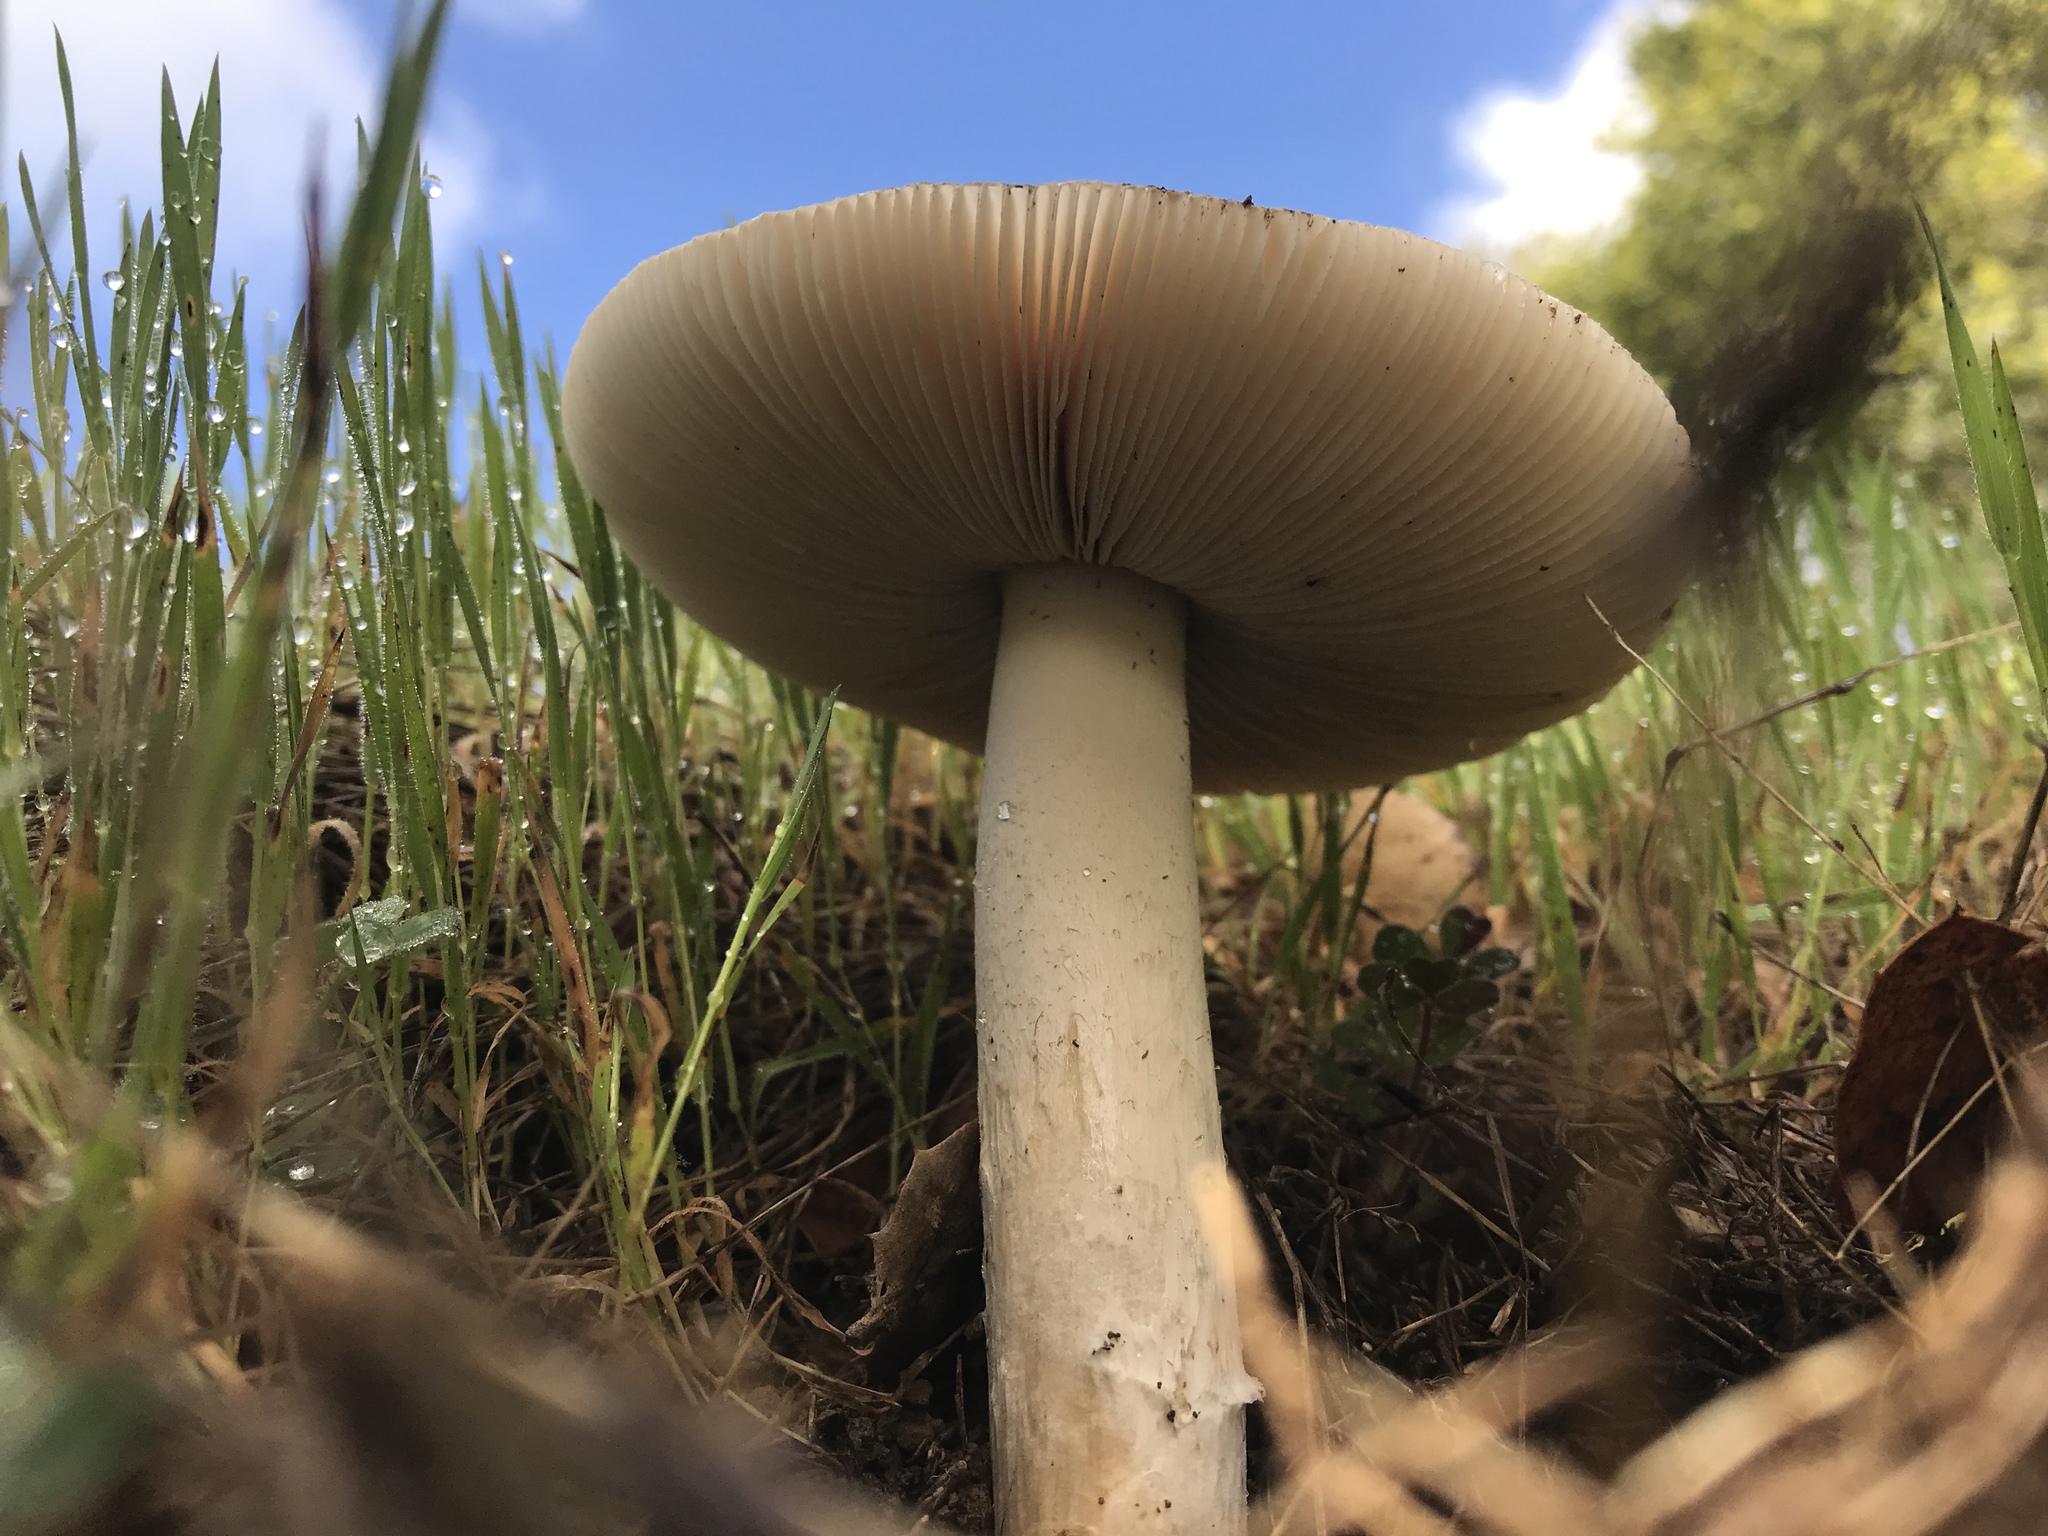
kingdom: Fungi
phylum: Basidiomycota
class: Agaricomycetes
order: Agaricales
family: Amanitaceae
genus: Amanita
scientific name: Amanita velosa
